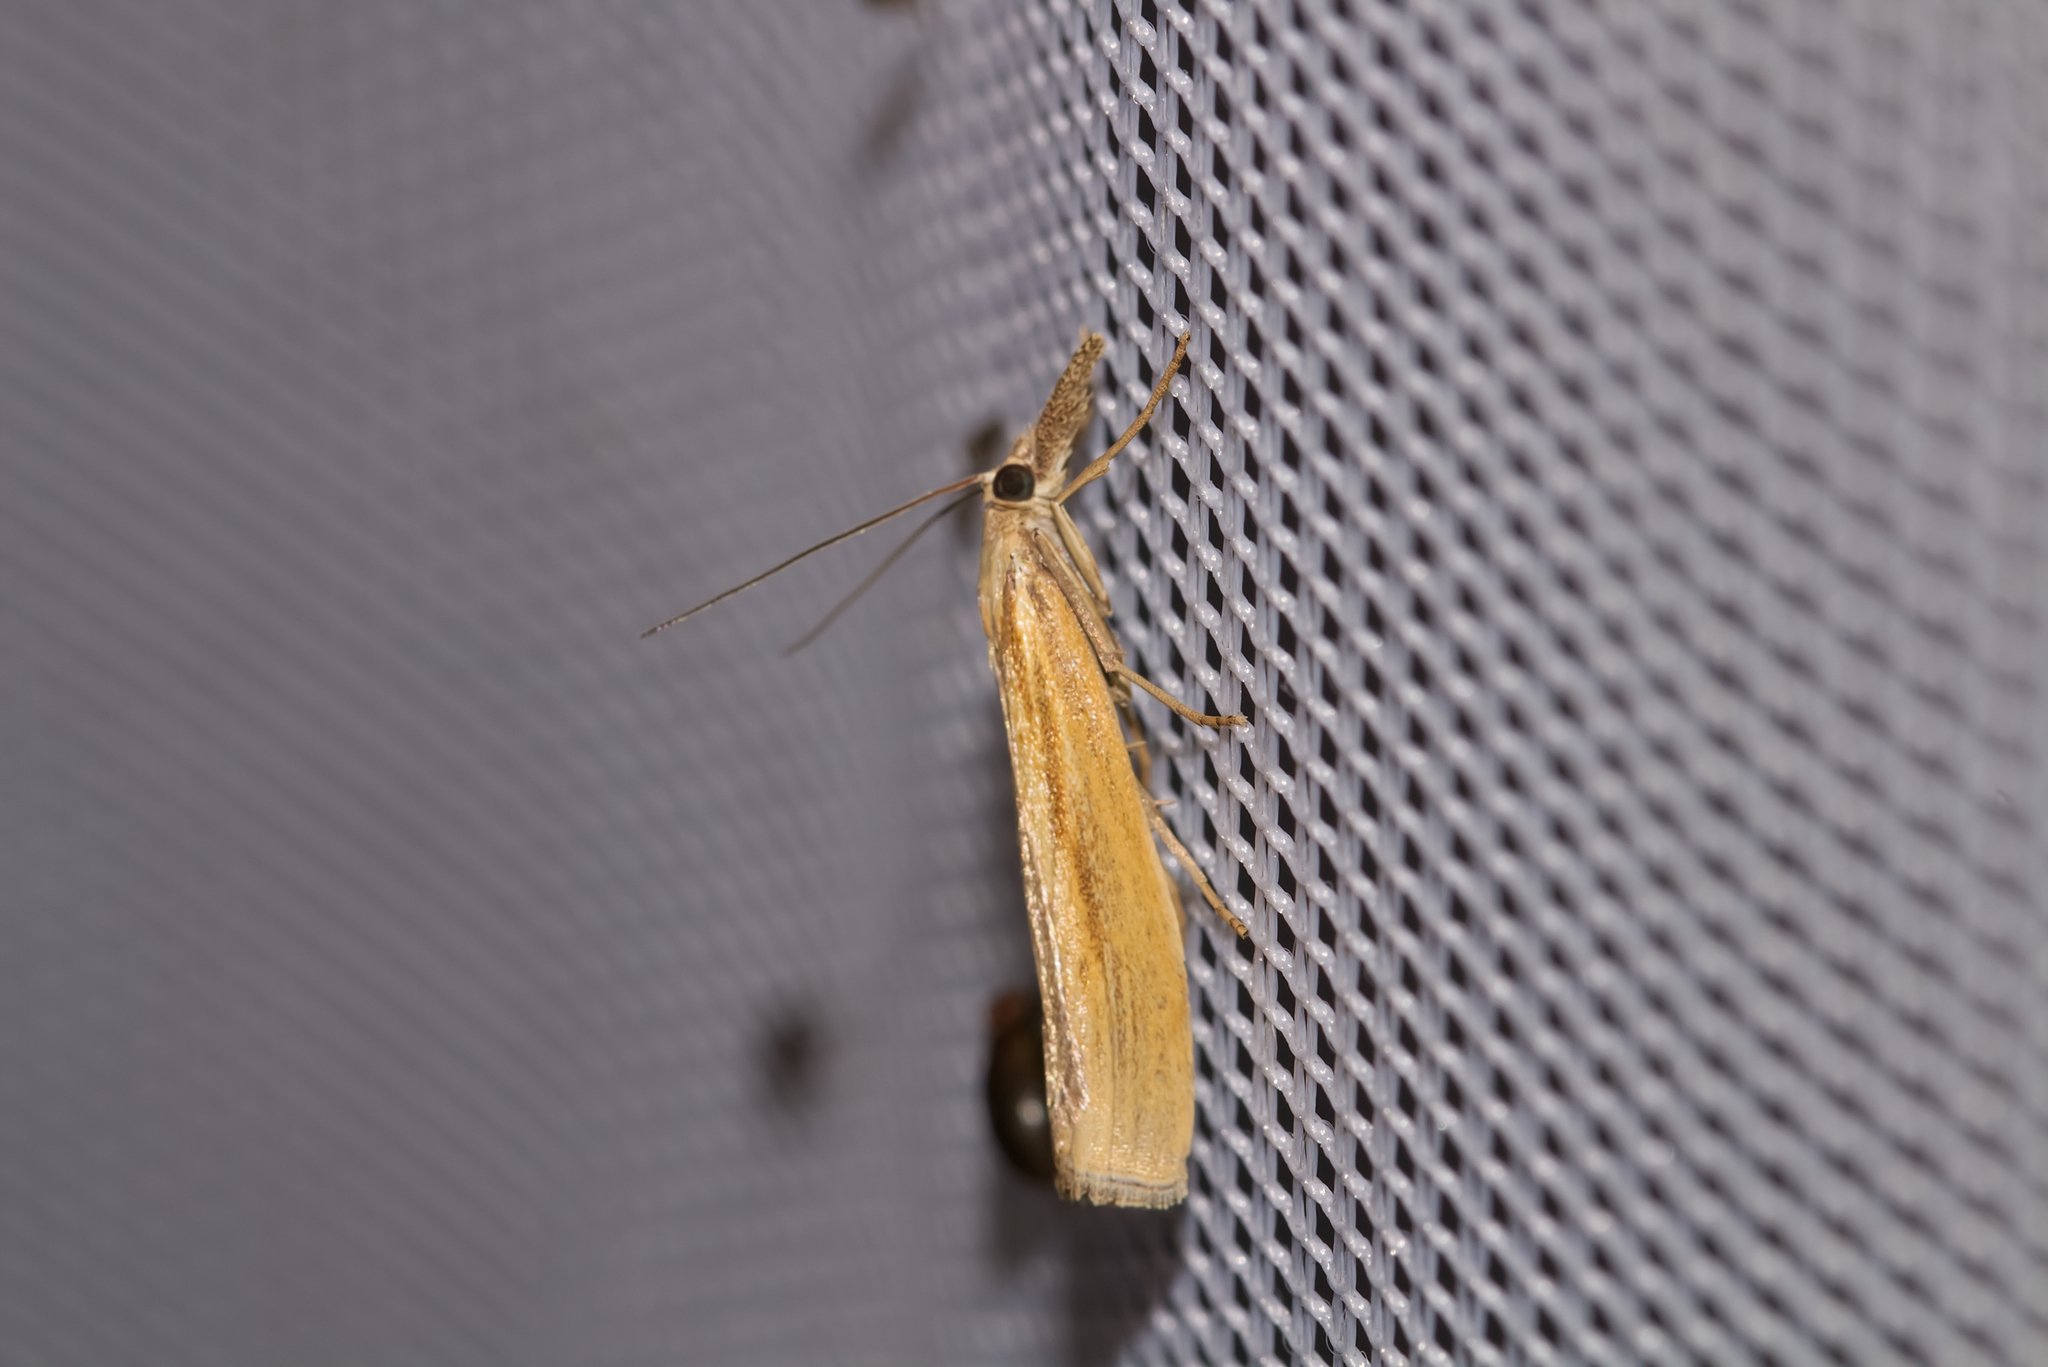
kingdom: Animalia
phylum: Arthropoda
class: Insecta
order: Lepidoptera
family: Crambidae
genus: Agriphila
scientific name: Agriphila tristellus
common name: Common grass-veneer
